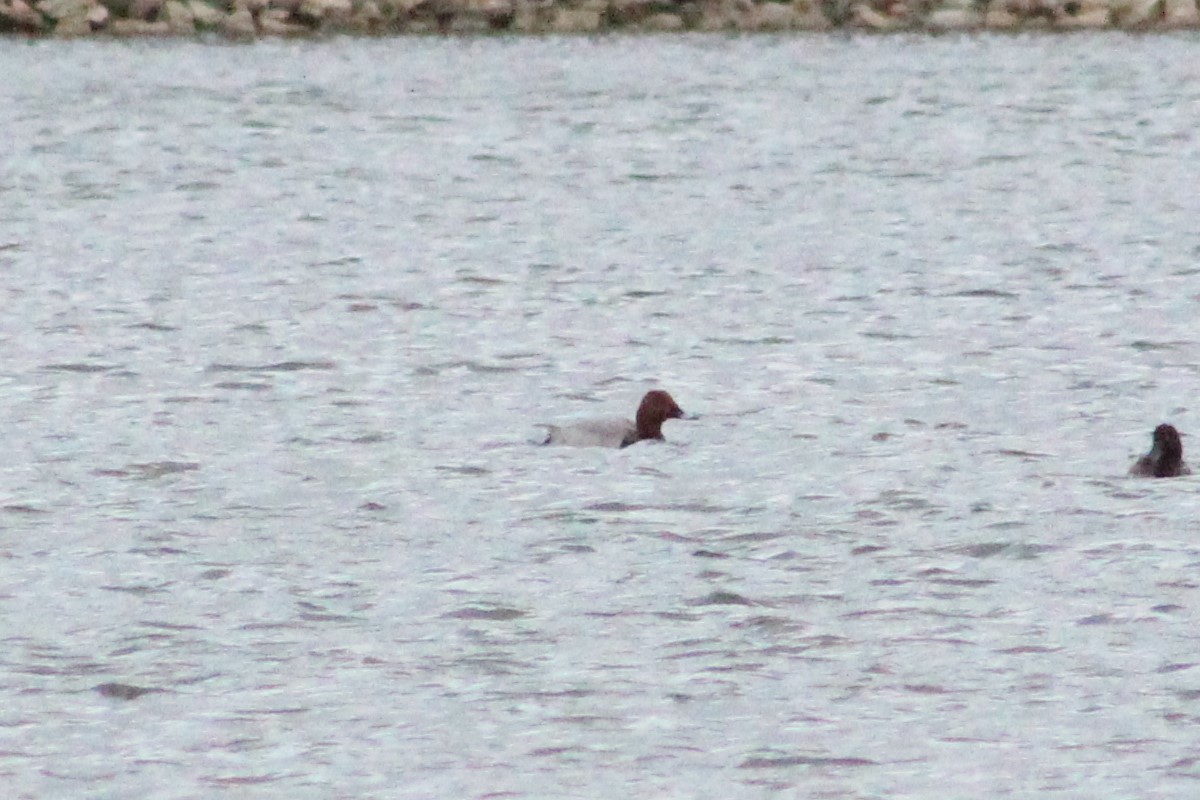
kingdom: Animalia
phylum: Chordata
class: Aves
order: Anseriformes
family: Anatidae
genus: Aythya
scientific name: Aythya ferina
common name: Common pochard
